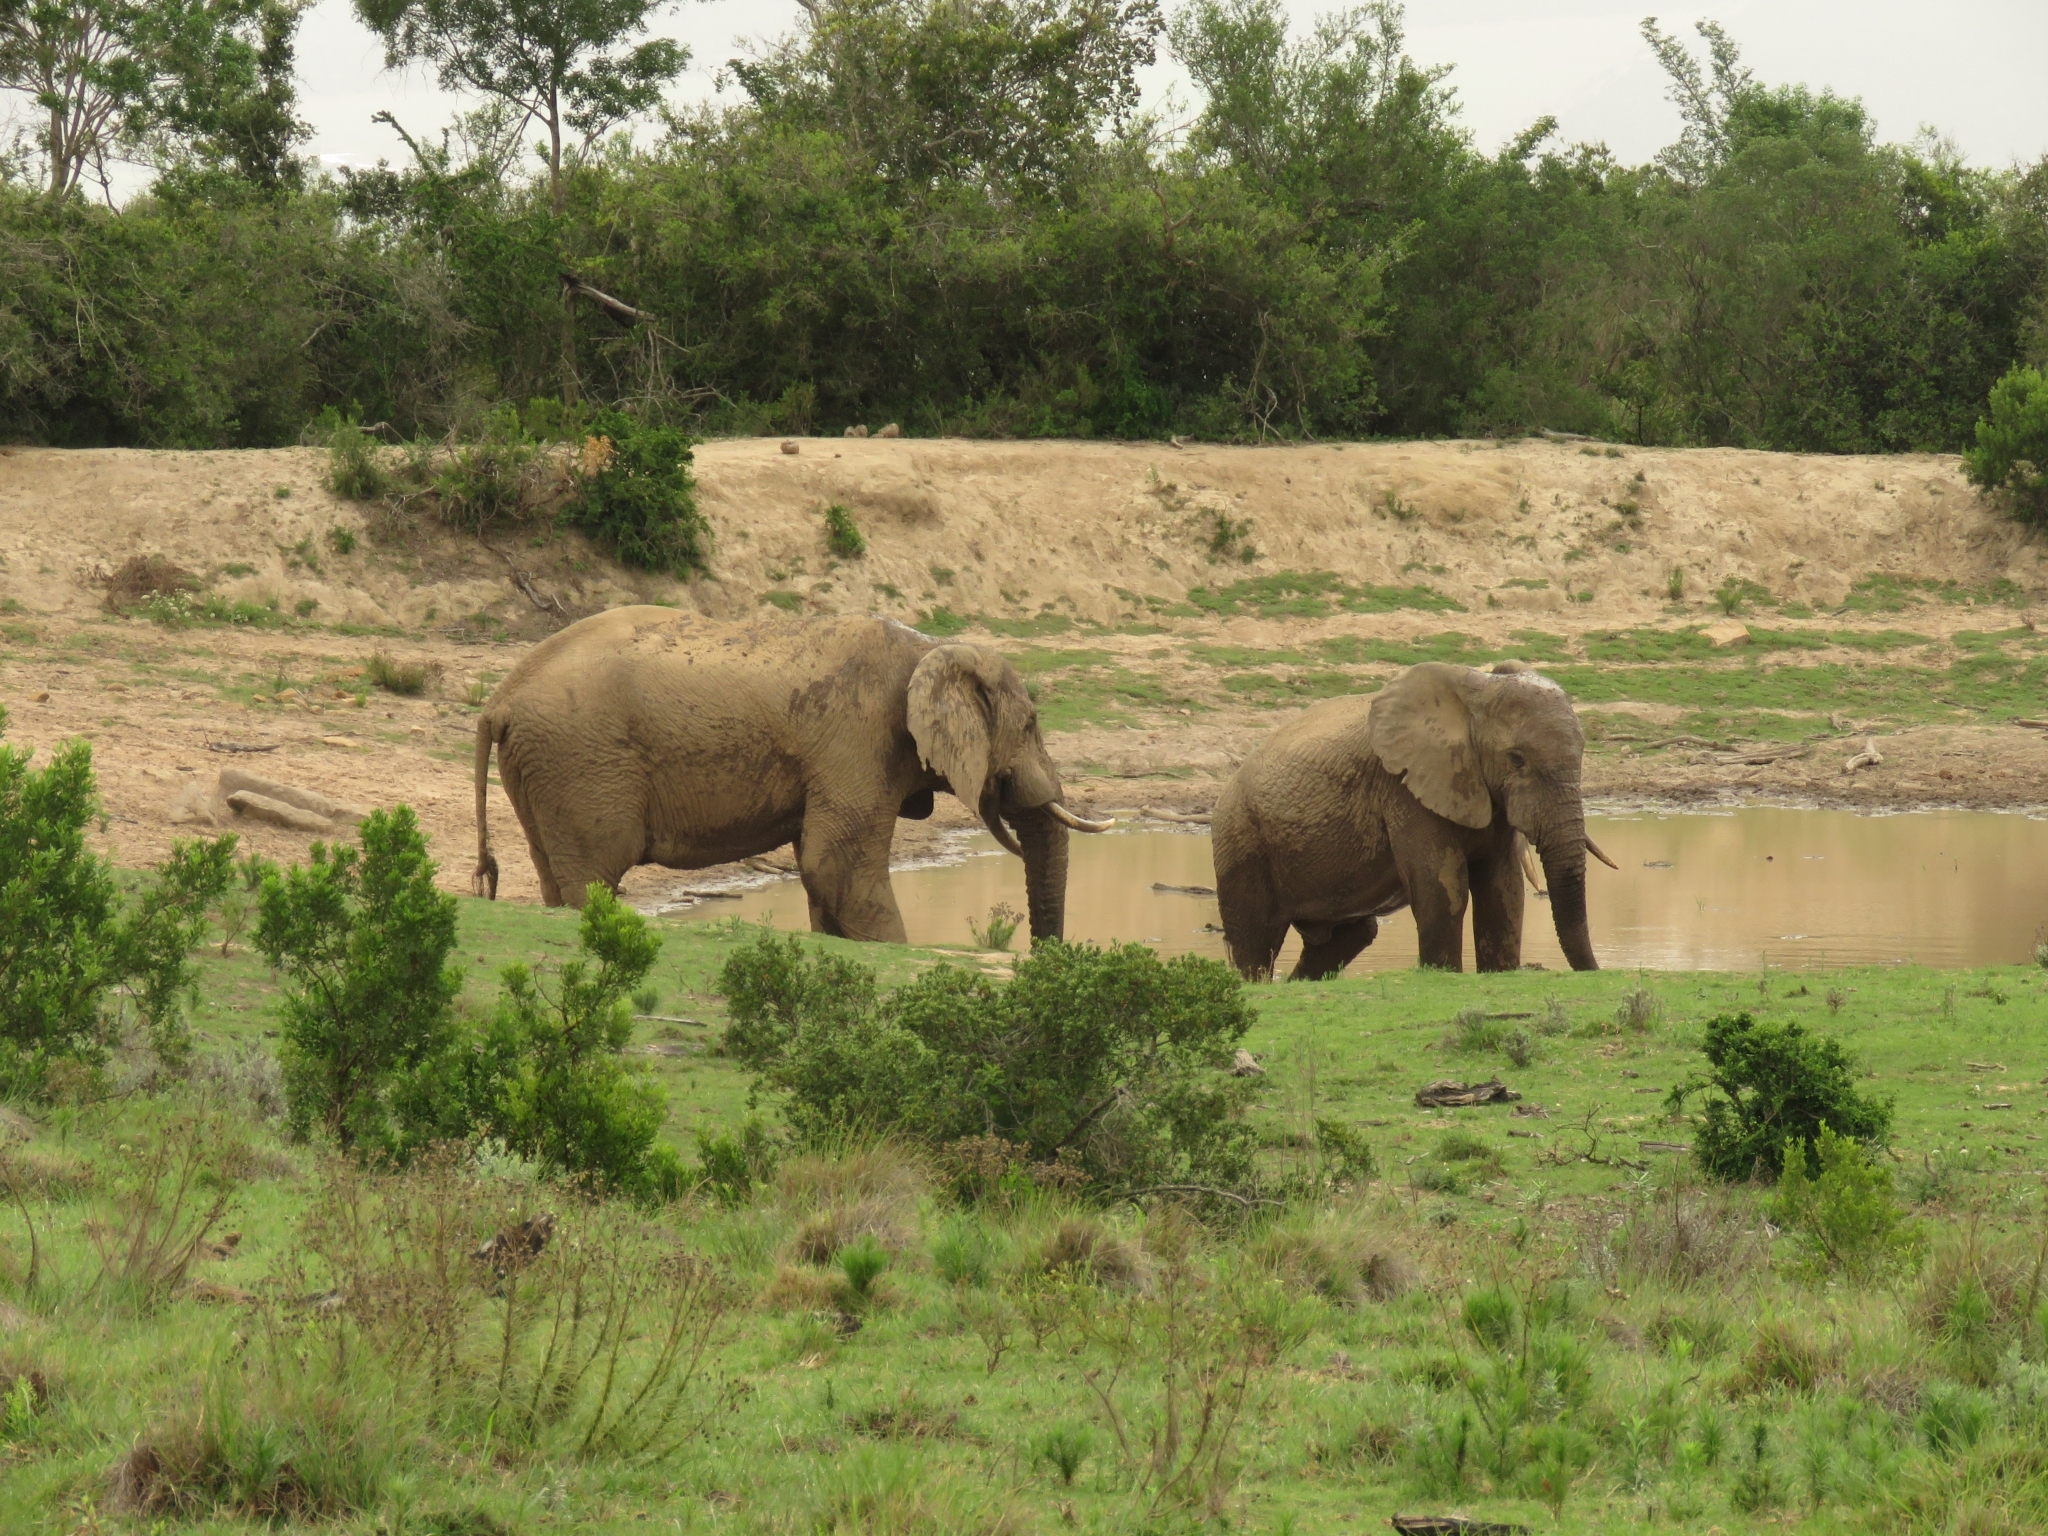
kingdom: Animalia
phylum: Chordata
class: Mammalia
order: Proboscidea
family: Elephantidae
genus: Loxodonta
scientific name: Loxodonta africana
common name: African elephant
